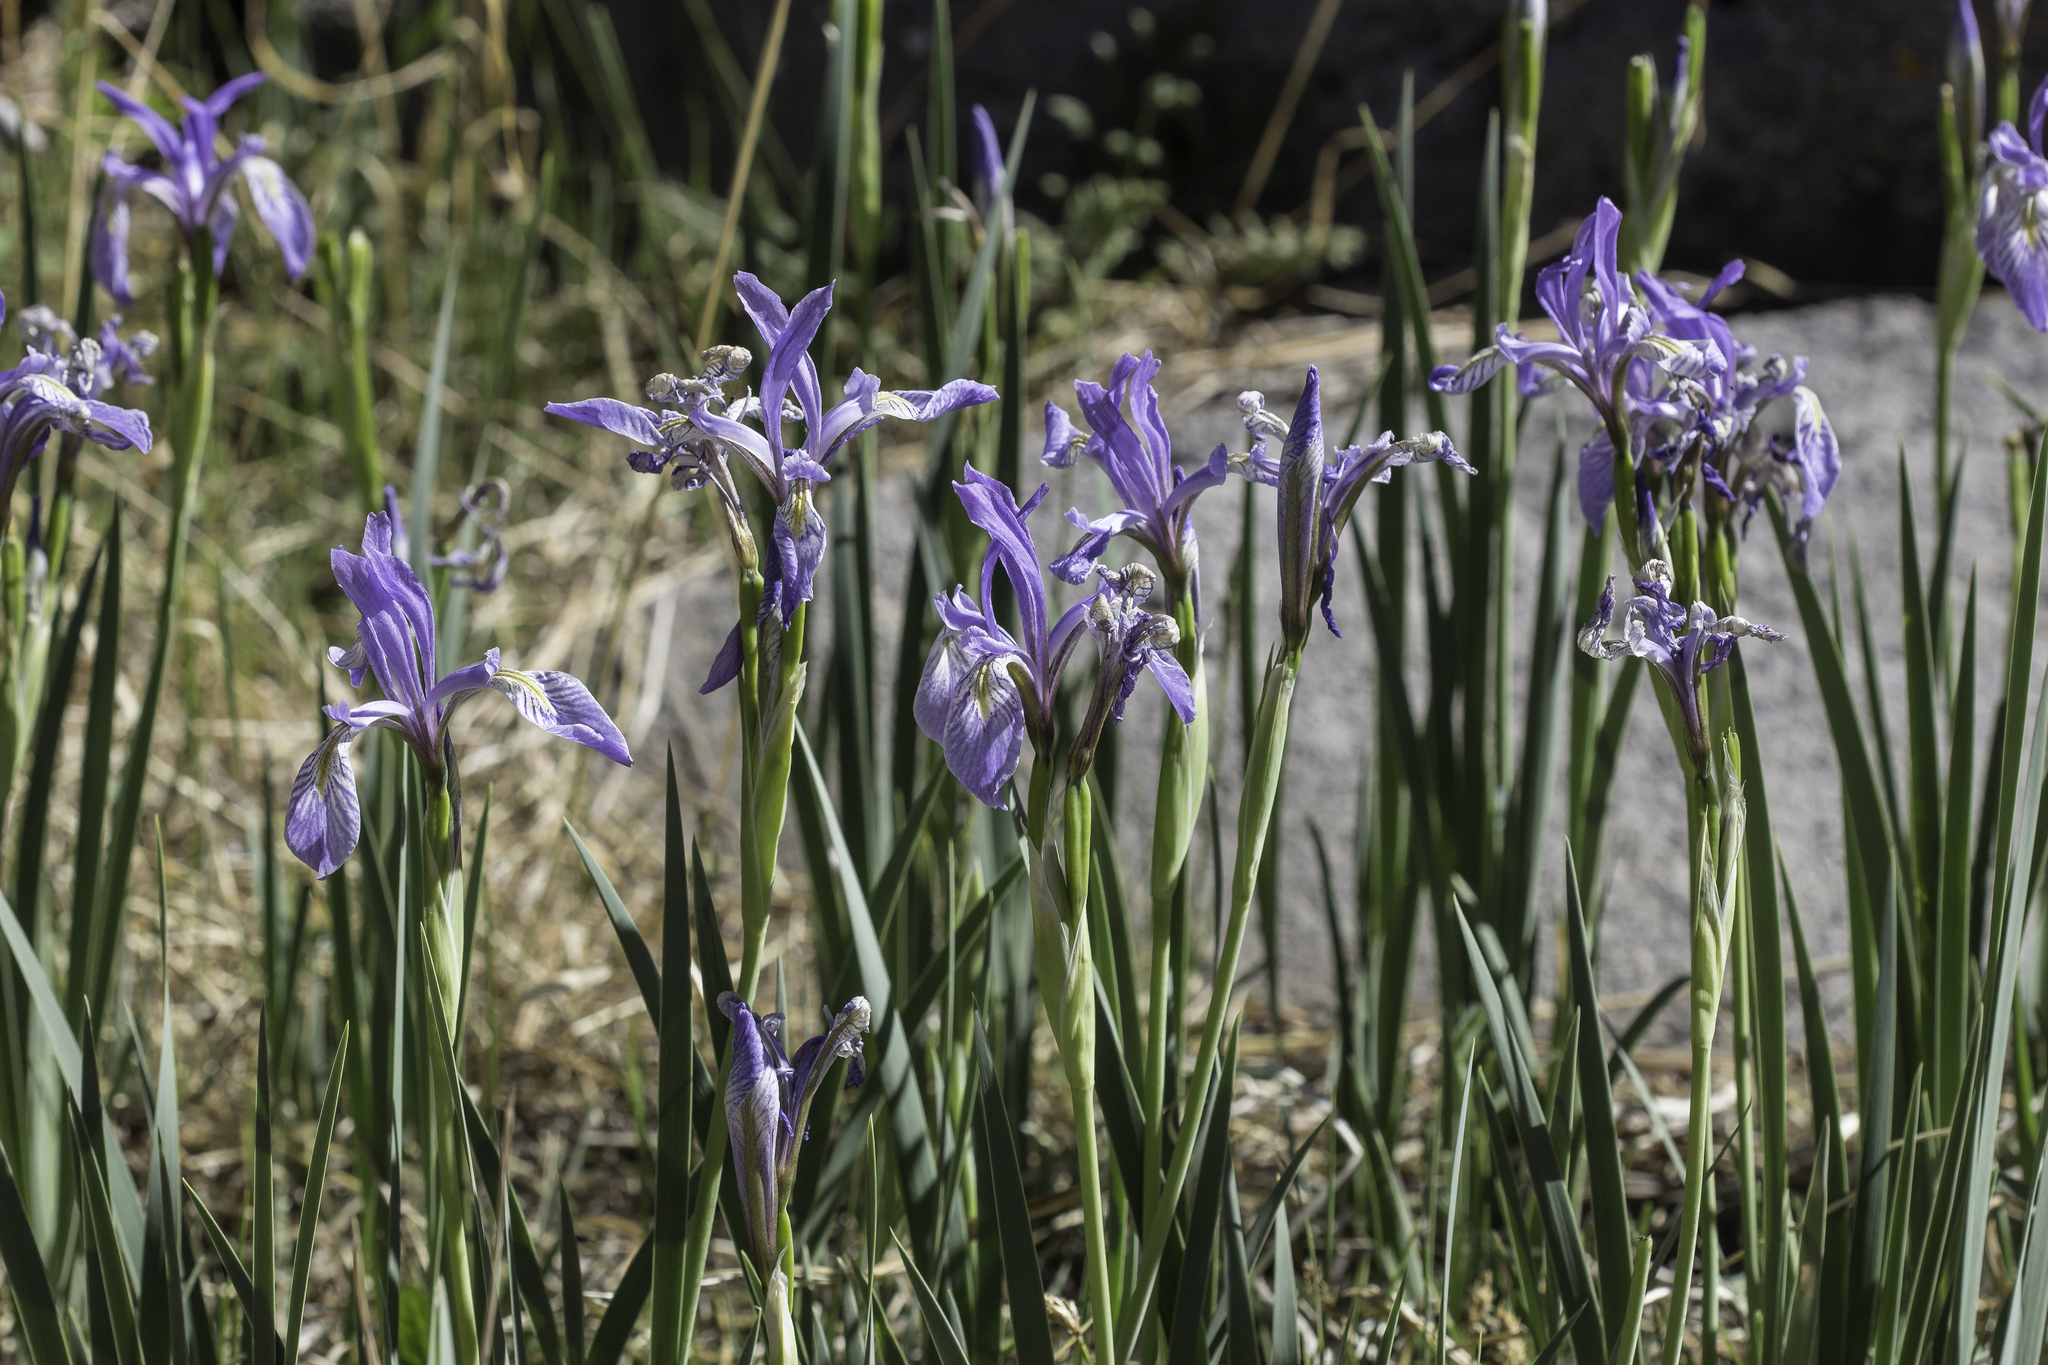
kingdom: Plantae
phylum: Tracheophyta
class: Liliopsida
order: Asparagales
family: Iridaceae
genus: Iris
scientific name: Iris missouriensis
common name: Rocky mountain iris
